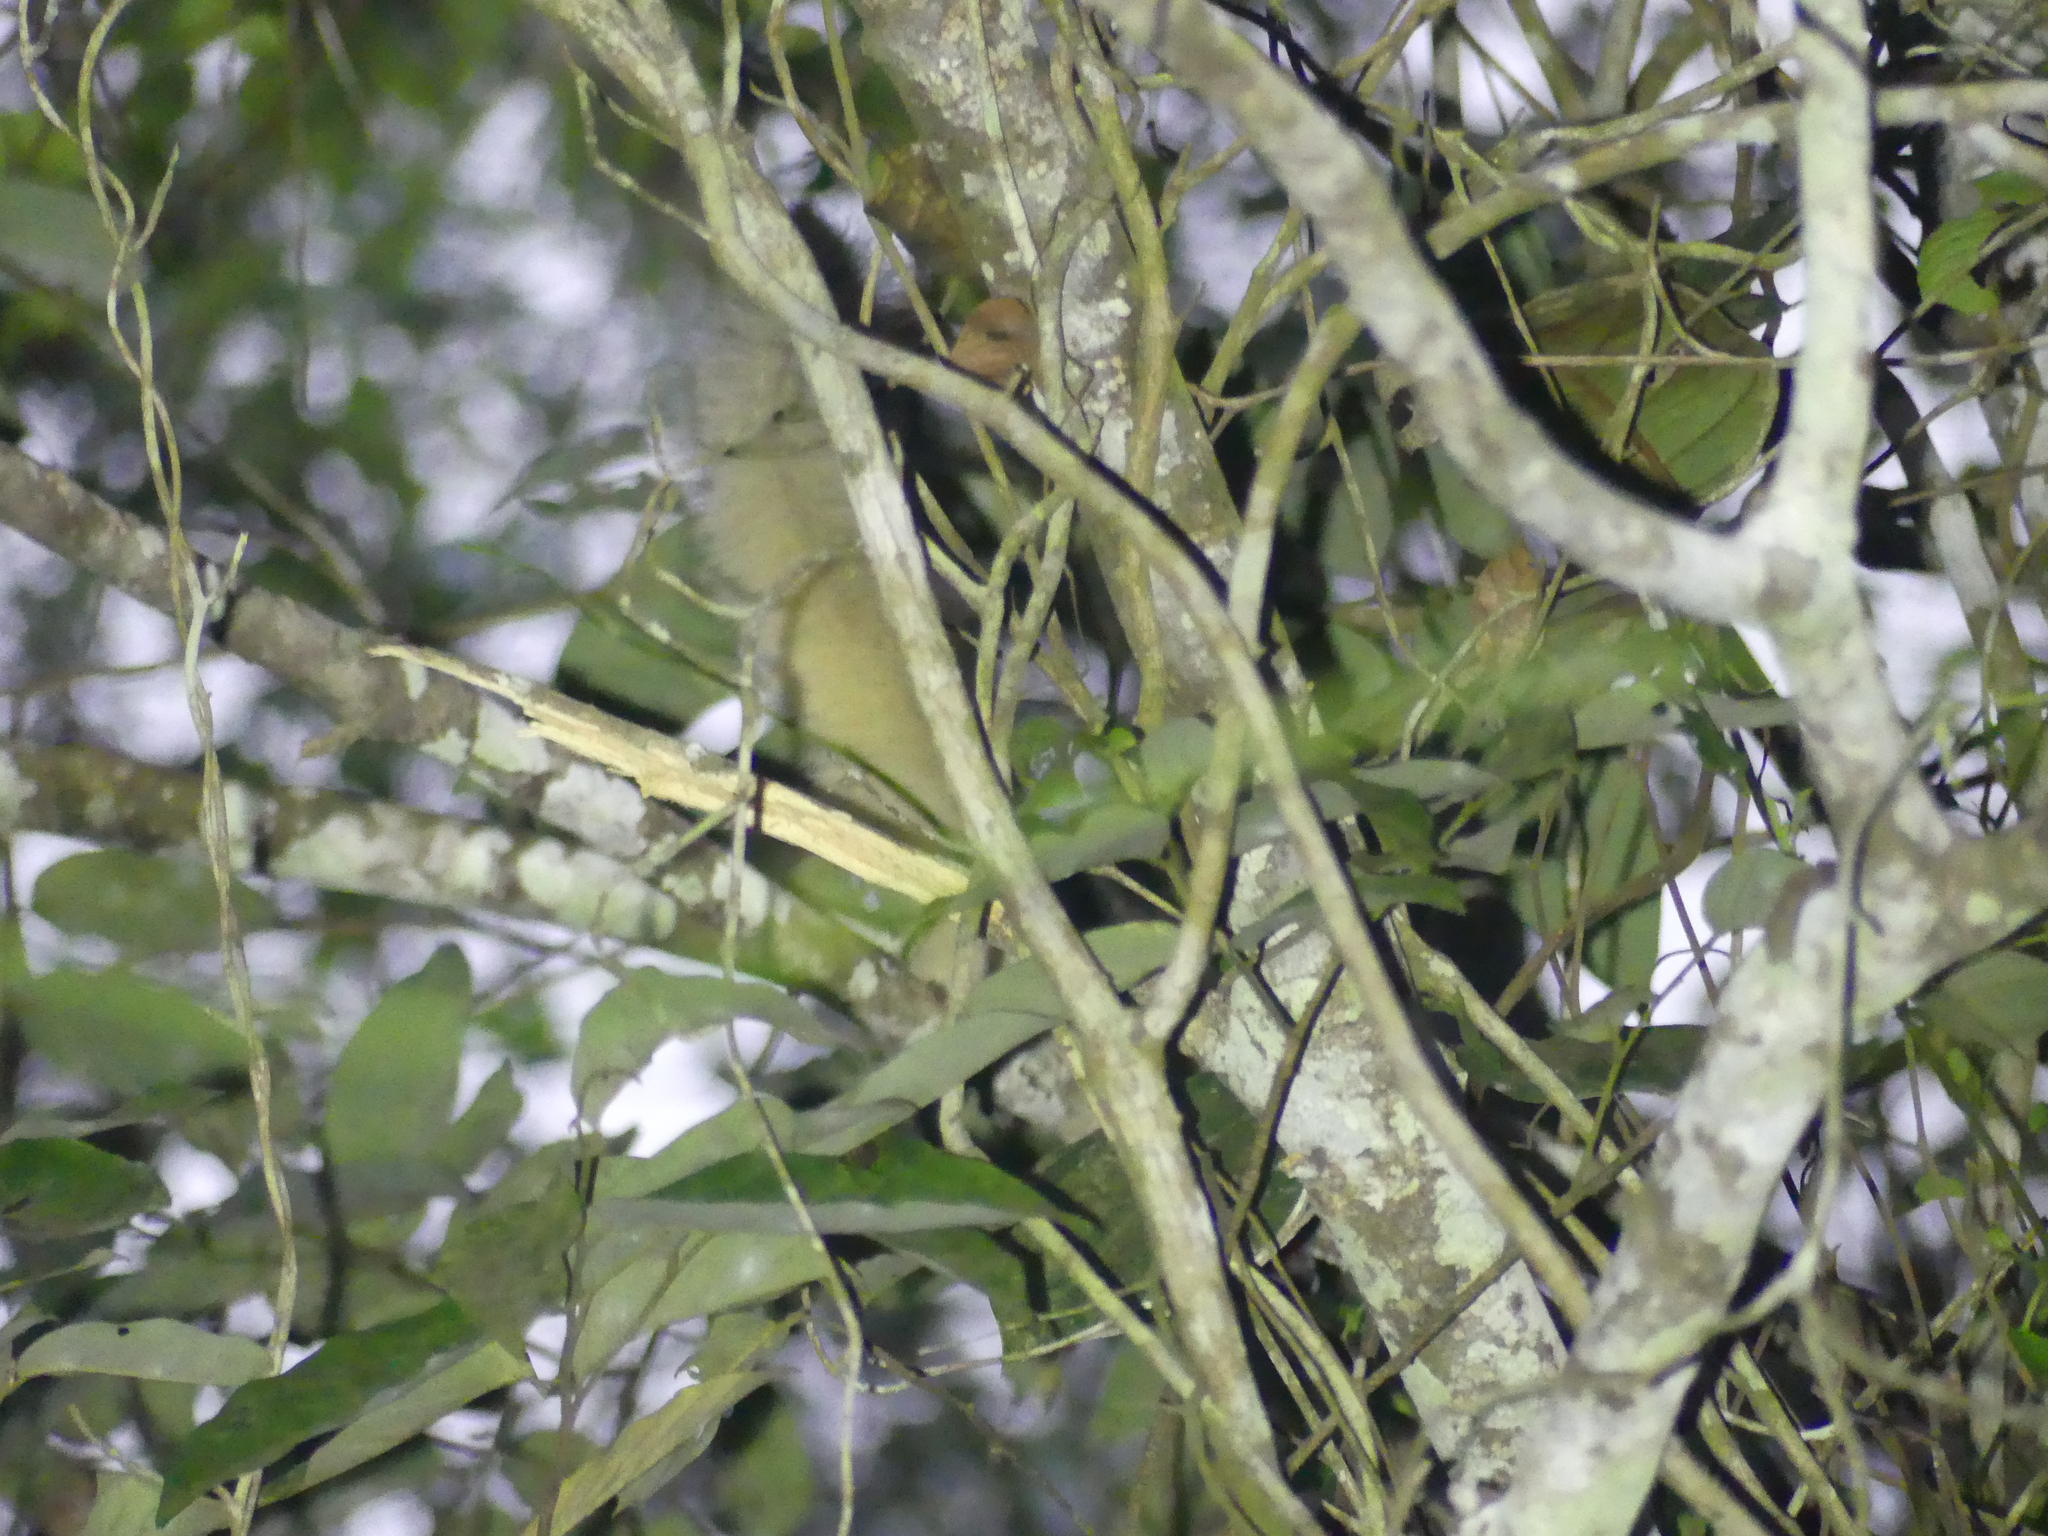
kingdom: Animalia
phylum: Chordata
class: Mammalia
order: Rodentia
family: Sciuridae
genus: Callosciurus
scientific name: Callosciurus finlaysonii
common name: Finlayson's squirrel
